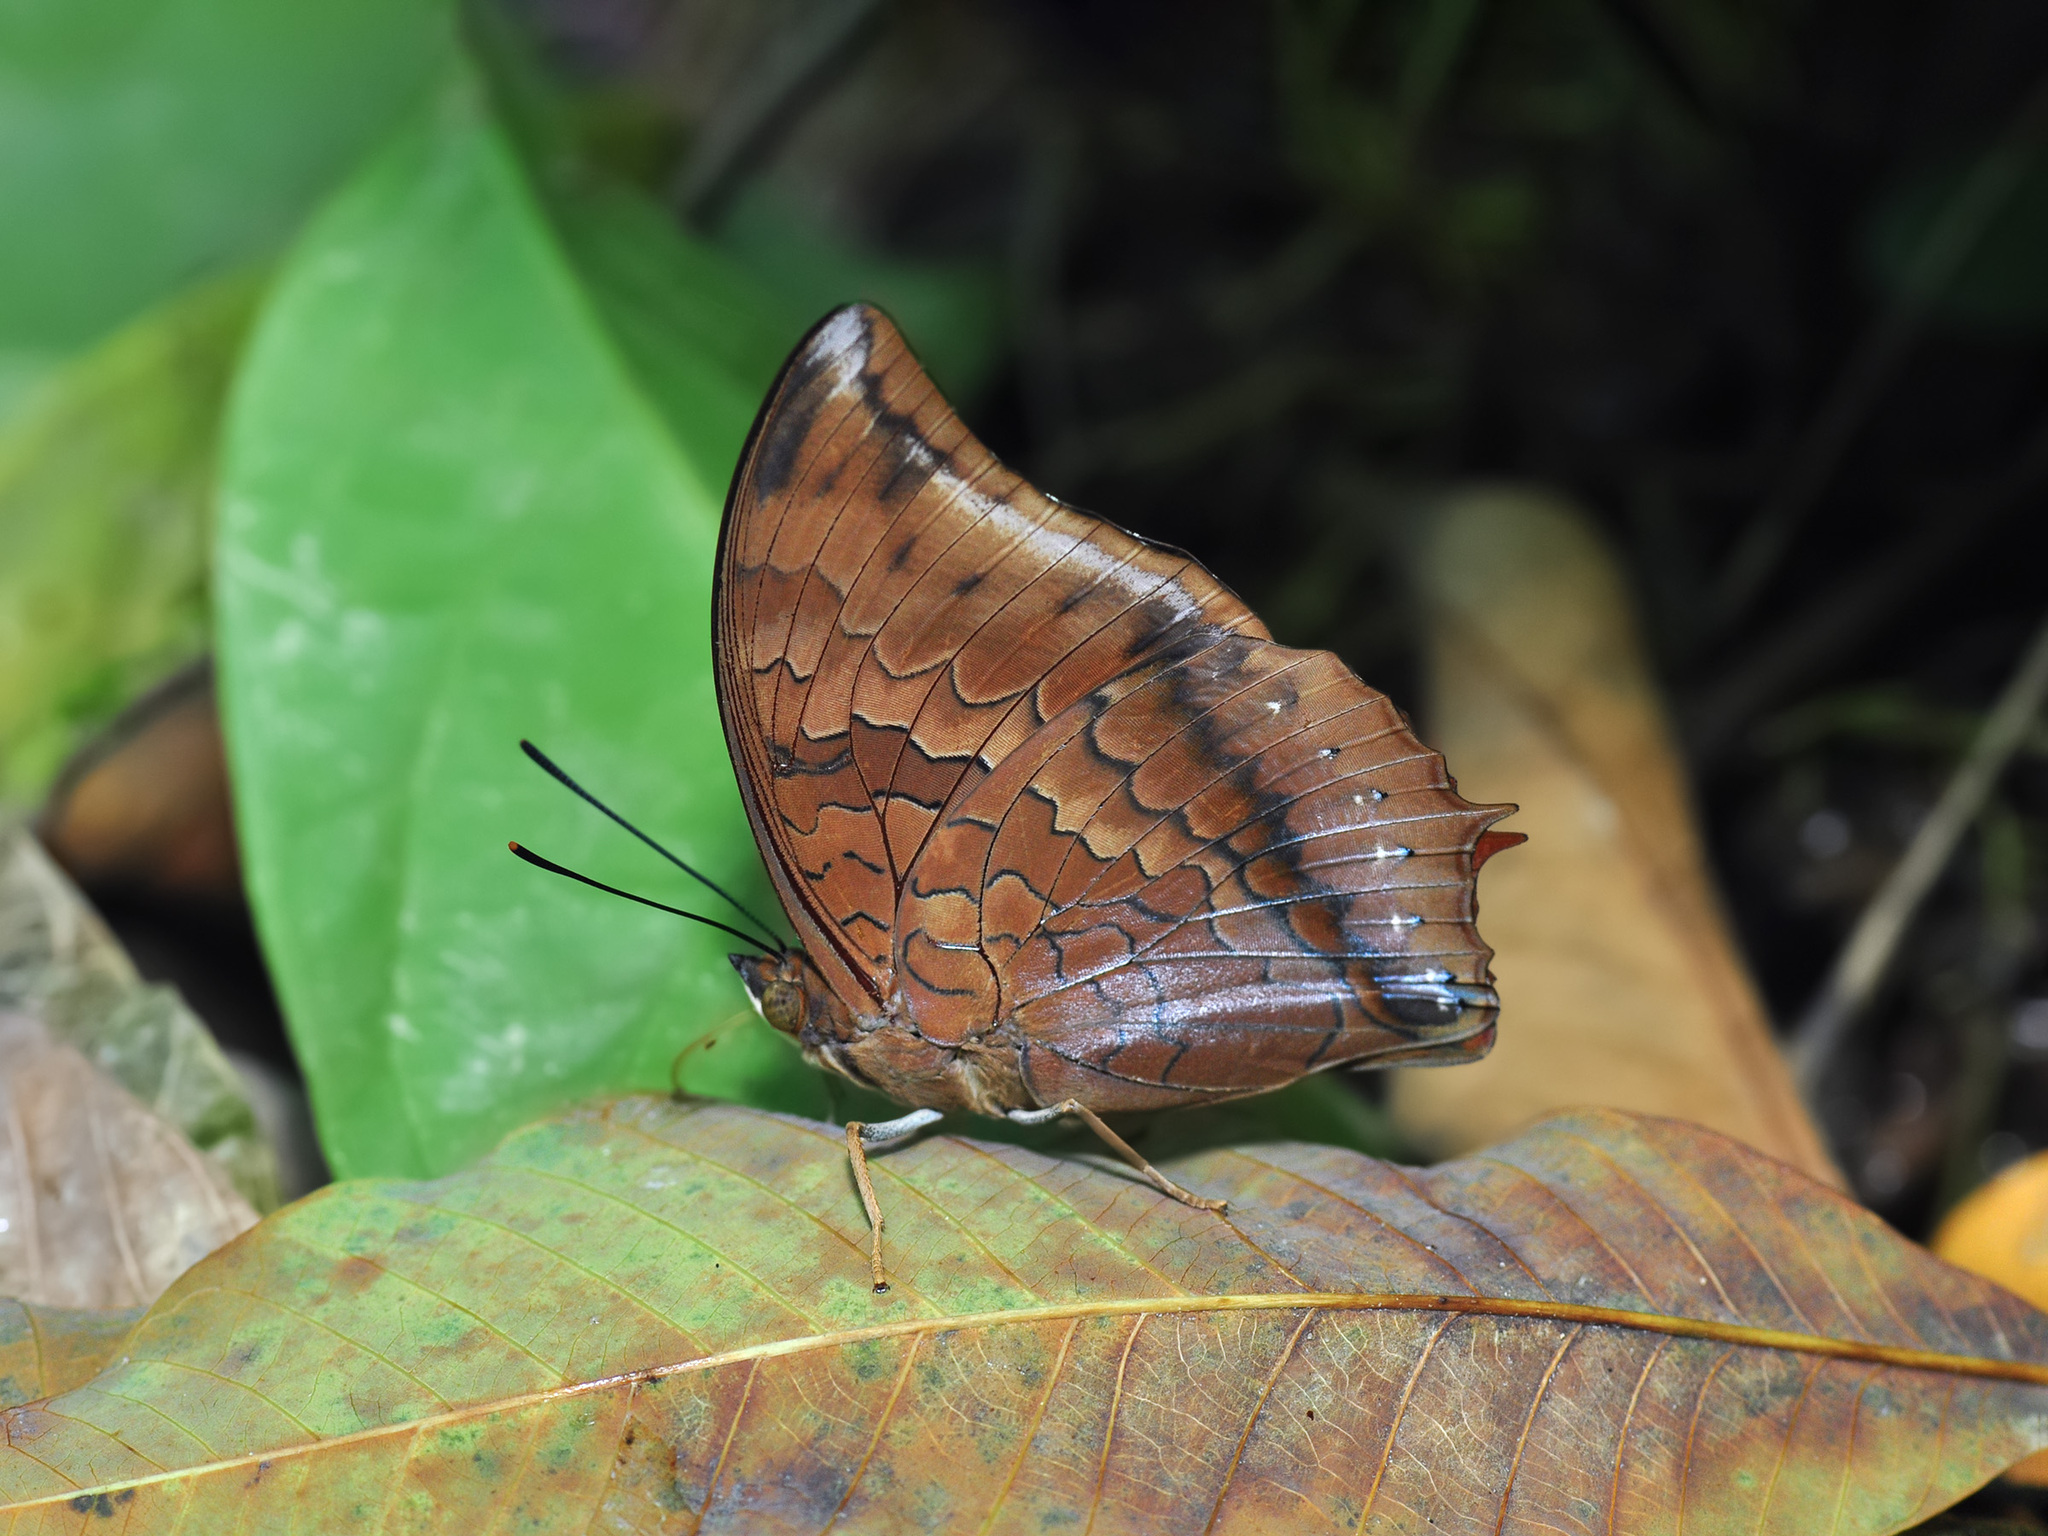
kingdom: Animalia
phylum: Arthropoda
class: Insecta
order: Lepidoptera
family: Nymphalidae
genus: Charaxes
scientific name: Charaxes bernardus
